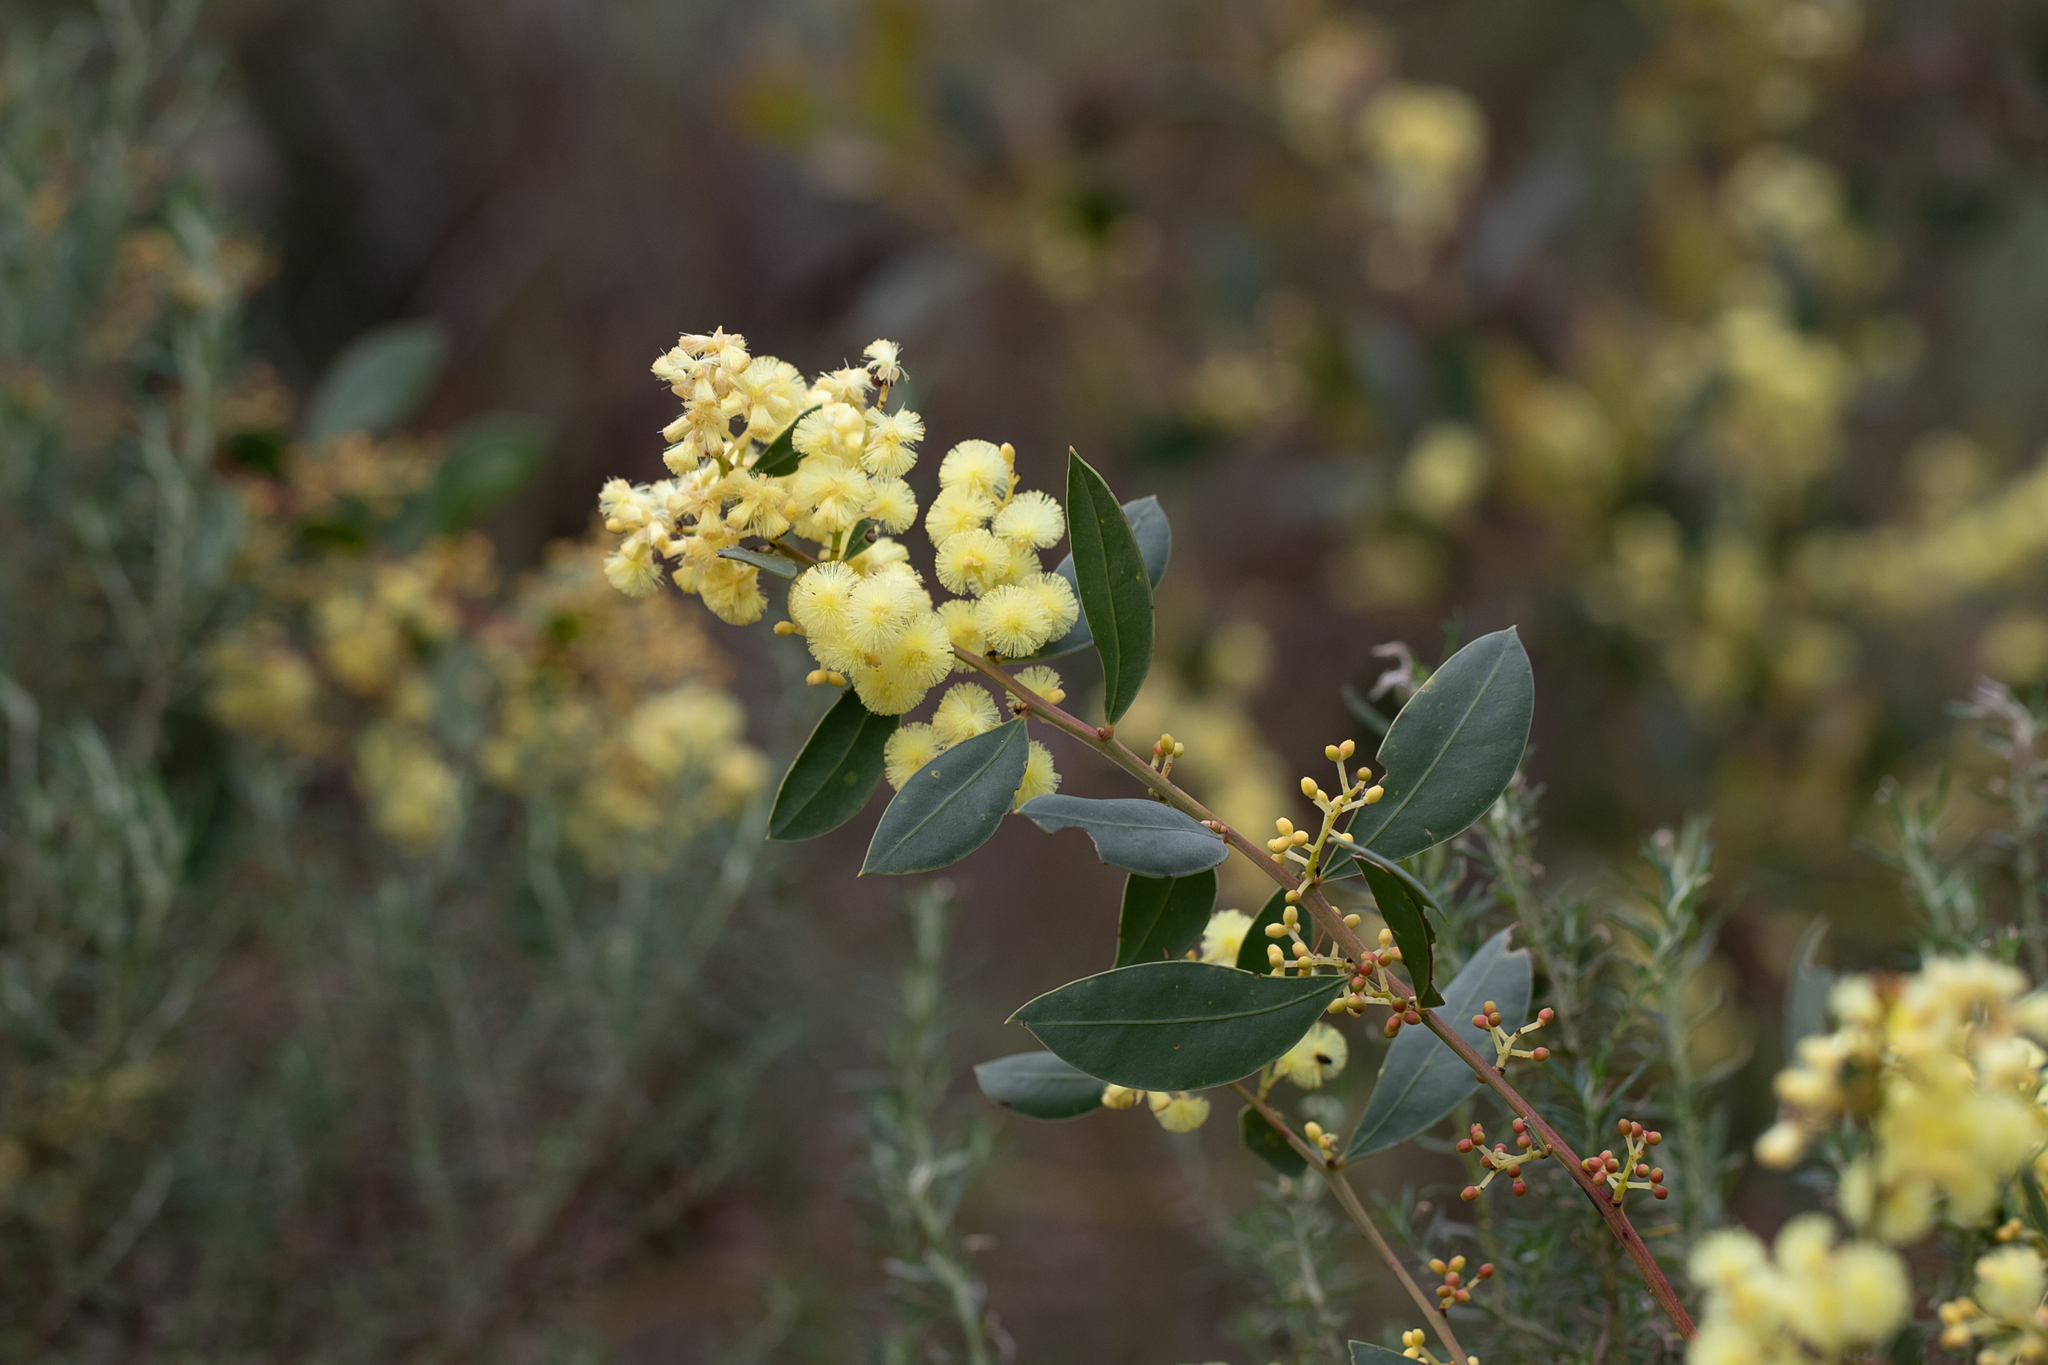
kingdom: Plantae
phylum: Tracheophyta
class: Magnoliopsida
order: Fabales
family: Fabaceae
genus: Acacia
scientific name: Acacia myrtifolia
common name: Myrtle wattle
